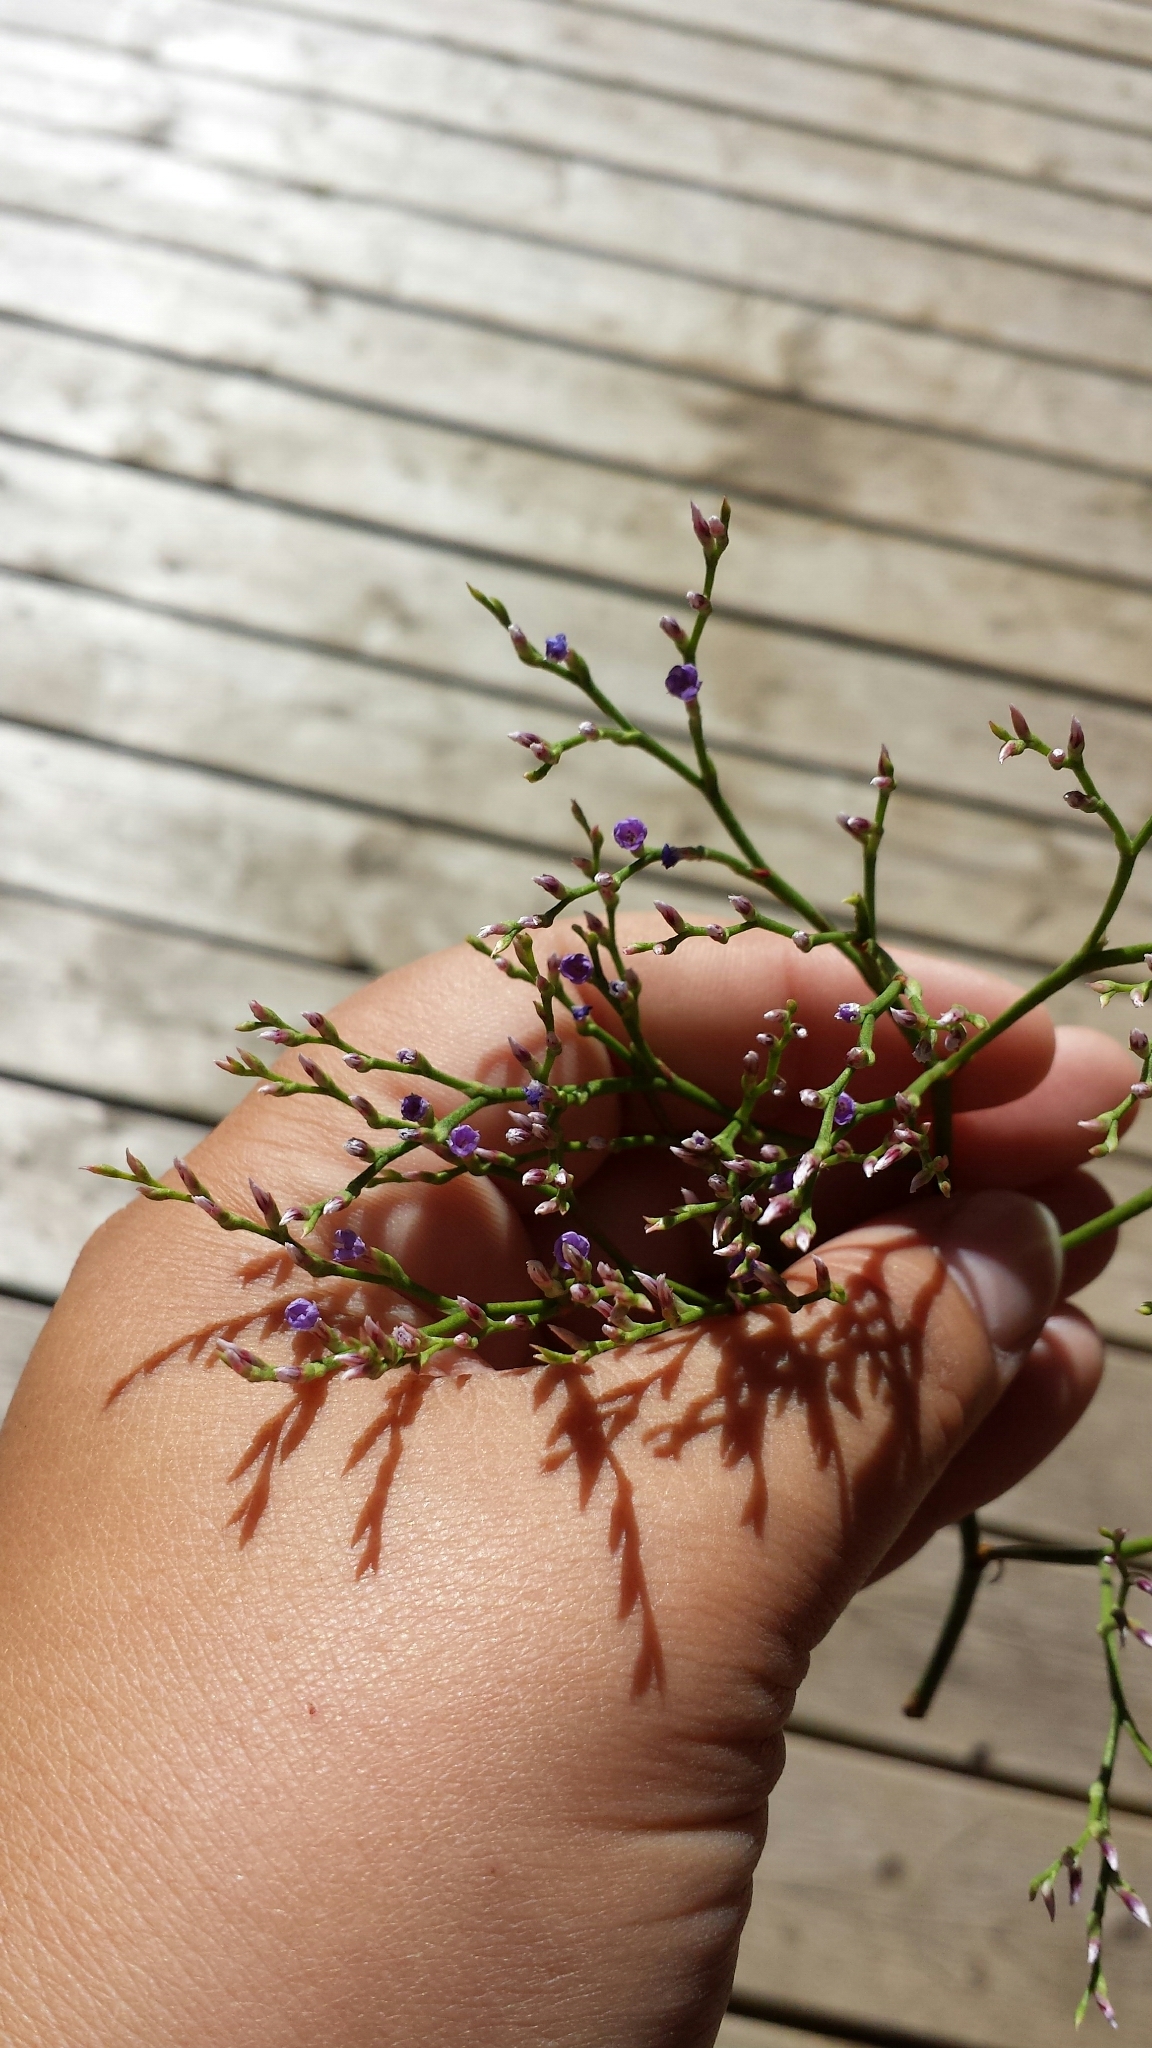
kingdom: Plantae
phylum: Tracheophyta
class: Magnoliopsida
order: Caryophyllales
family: Plumbaginaceae
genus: Limonium
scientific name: Limonium carolinianum
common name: Carolina sea lavender
